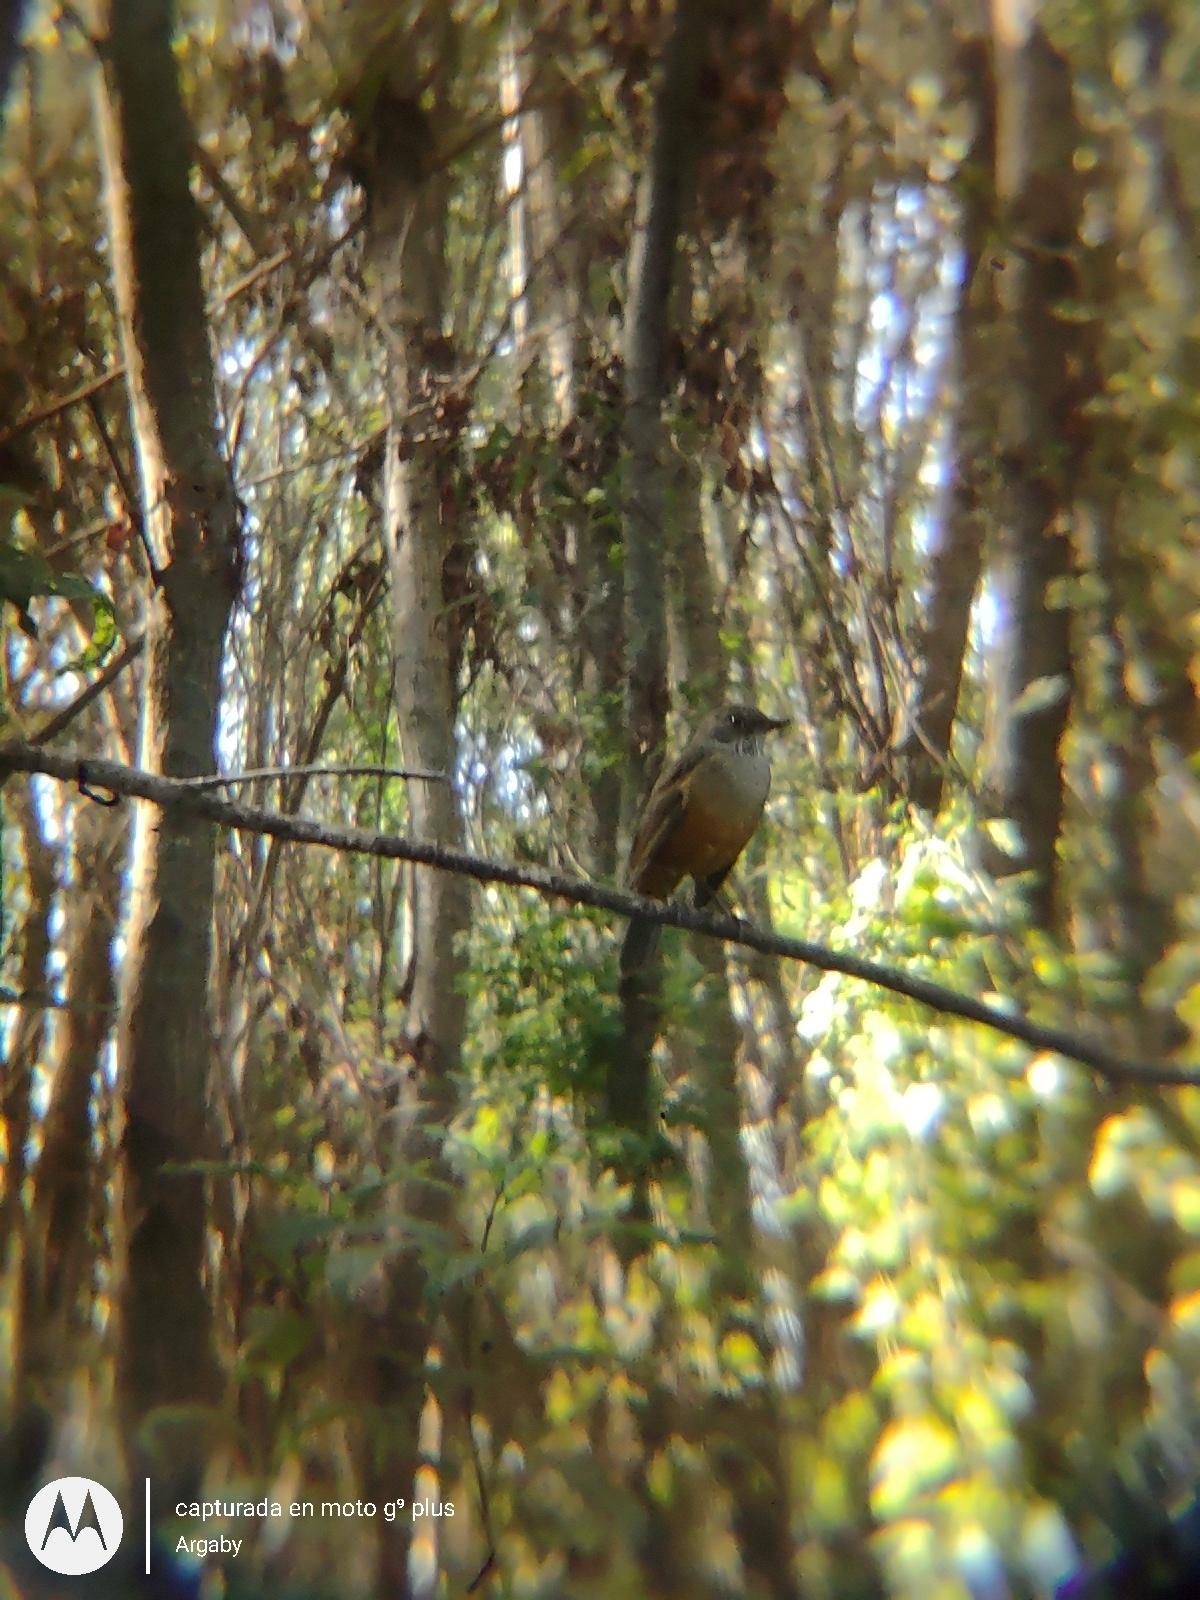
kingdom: Animalia
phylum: Chordata
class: Aves
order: Passeriformes
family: Turdidae
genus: Turdus
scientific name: Turdus rufiventris
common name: Rufous-bellied thrush
